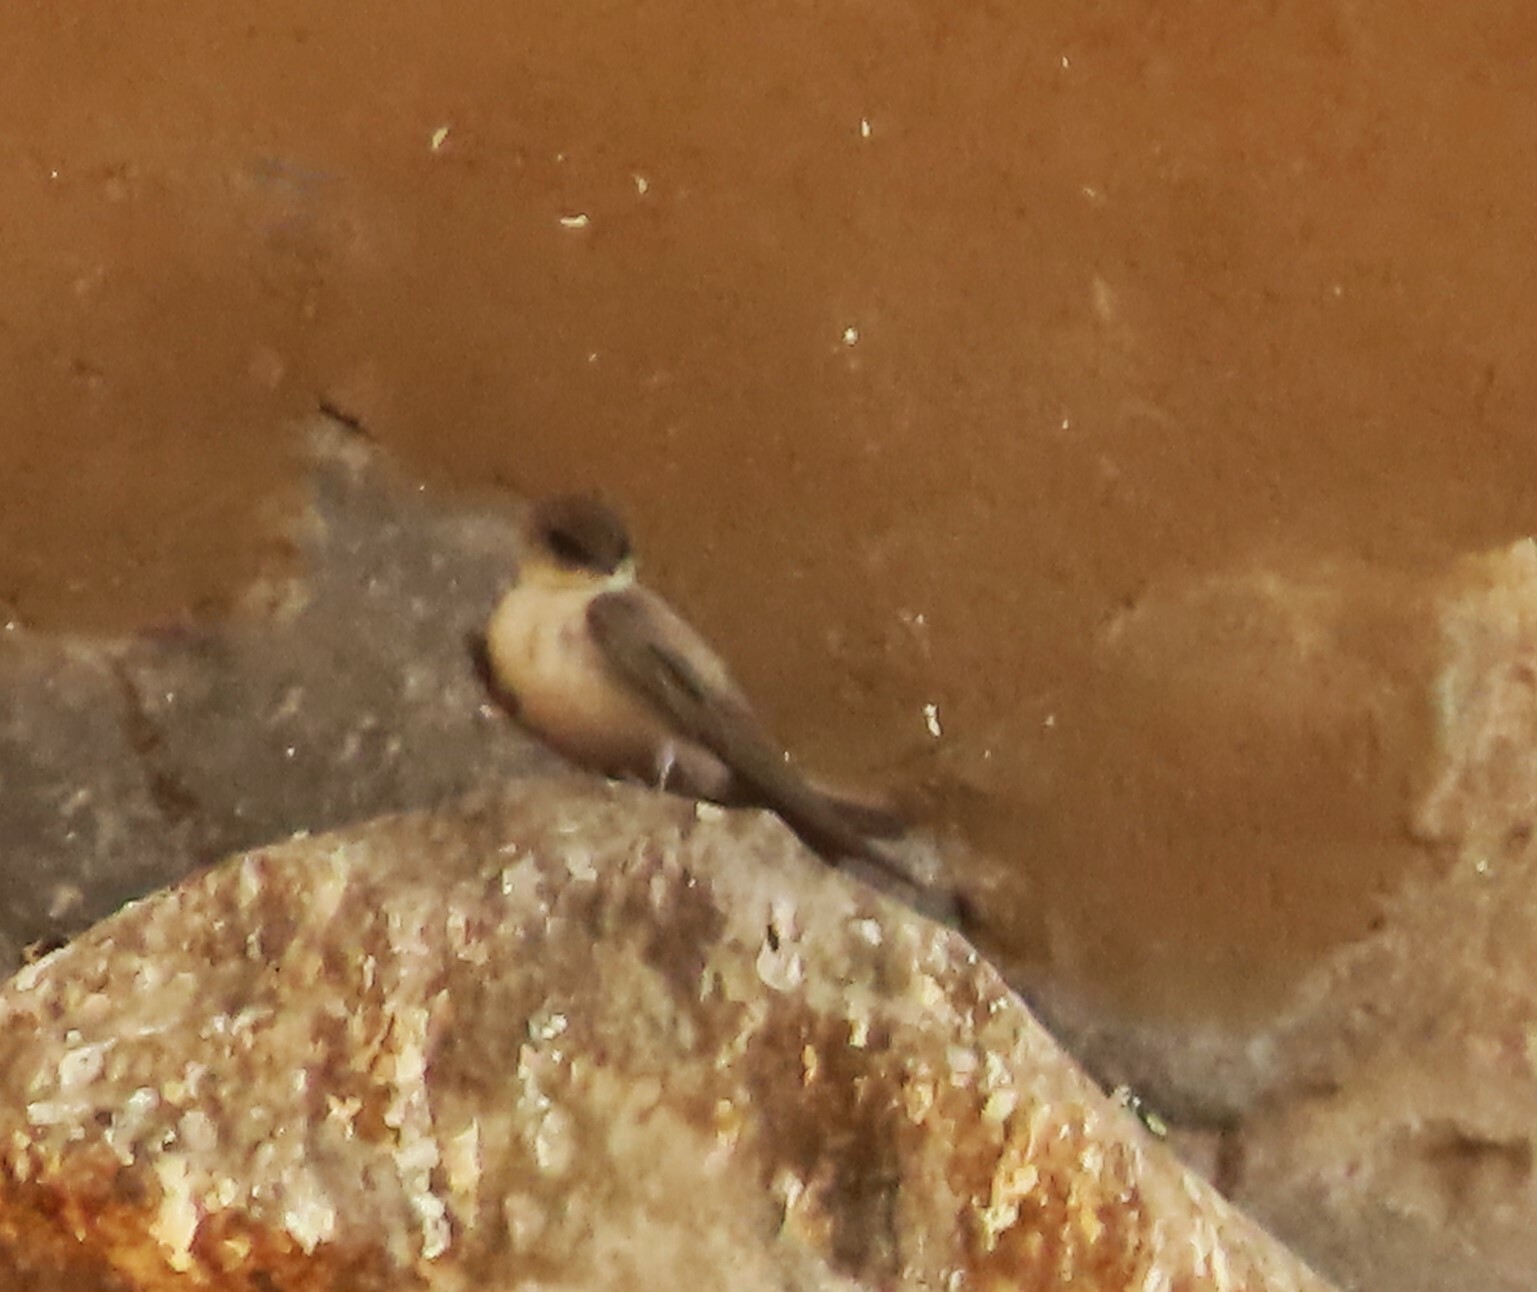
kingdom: Animalia
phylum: Chordata
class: Aves
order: Passeriformes
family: Hirundinidae
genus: Ptyonoprogne
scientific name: Ptyonoprogne fuligula
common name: Rock martin
